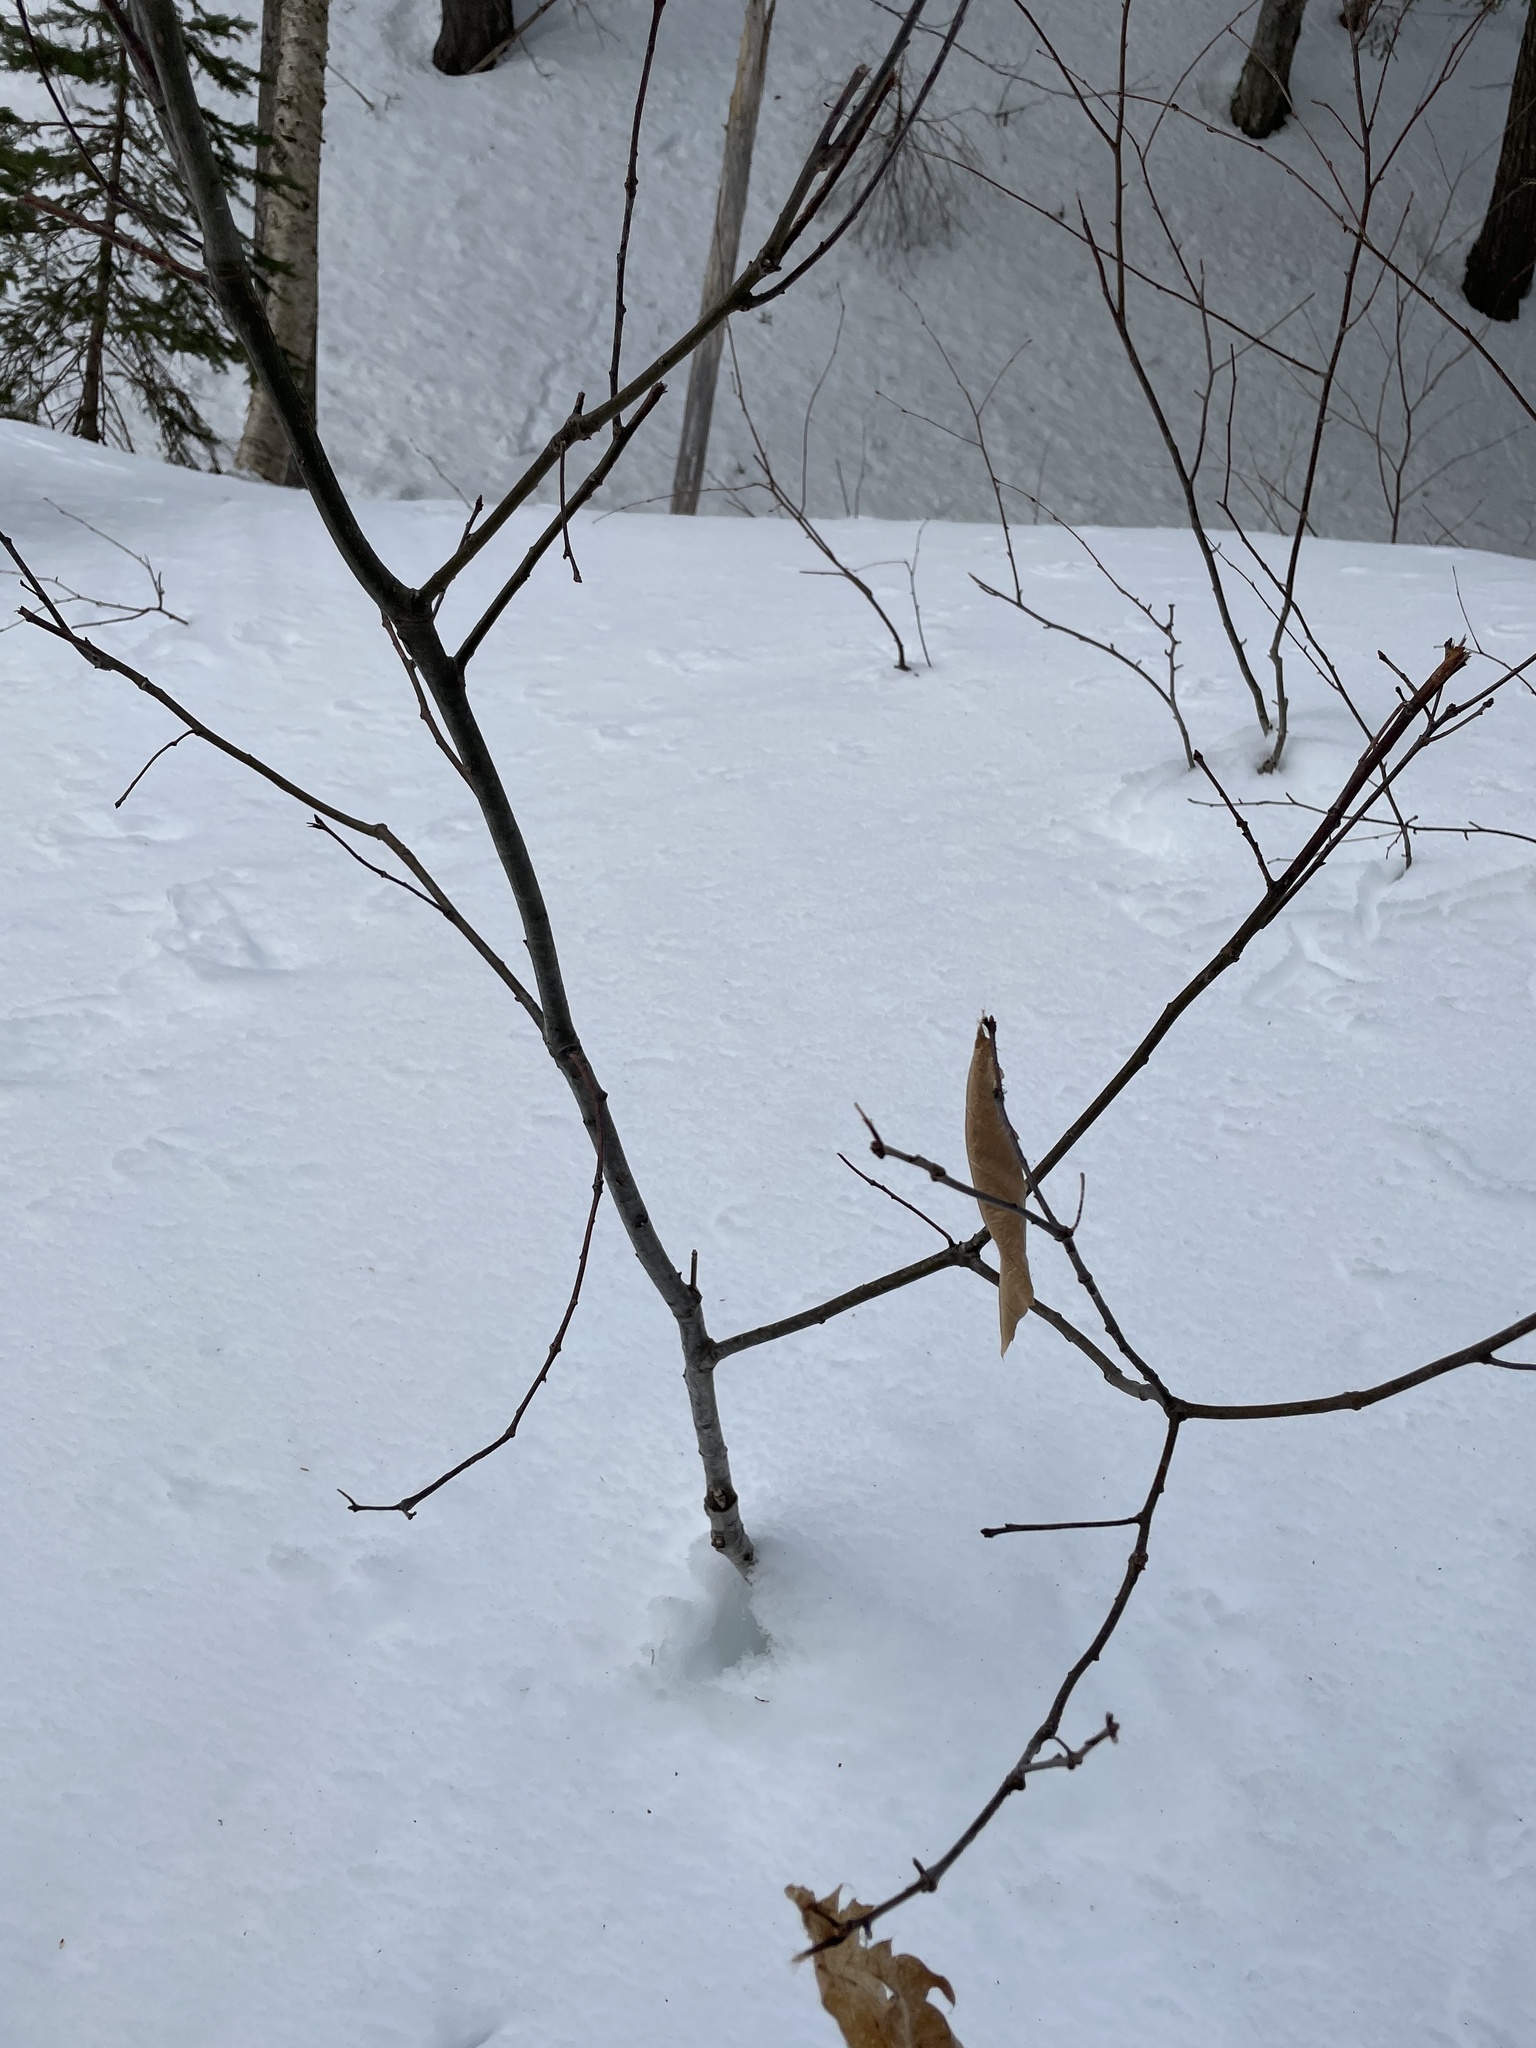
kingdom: Plantae
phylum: Tracheophyta
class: Magnoliopsida
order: Fagales
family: Fagaceae
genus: Quercus
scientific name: Quercus rubra
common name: Red oak
